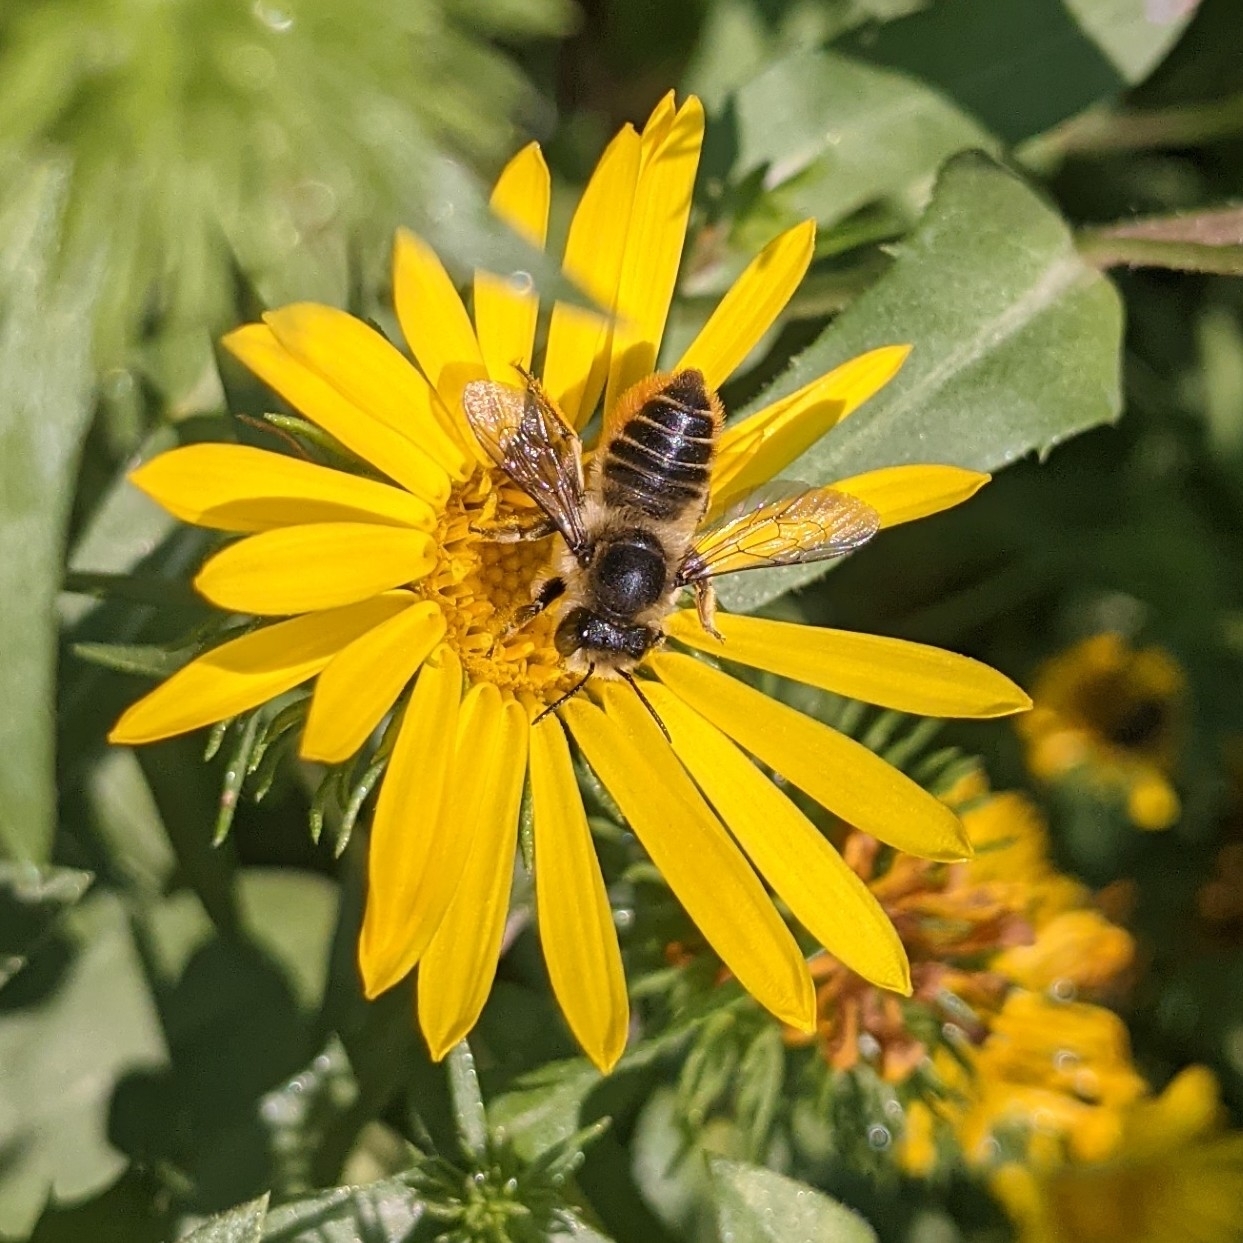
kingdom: Animalia
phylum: Arthropoda
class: Insecta
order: Hymenoptera
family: Megachilidae
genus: Megachile
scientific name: Megachile perihirta
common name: Western leafcutter
